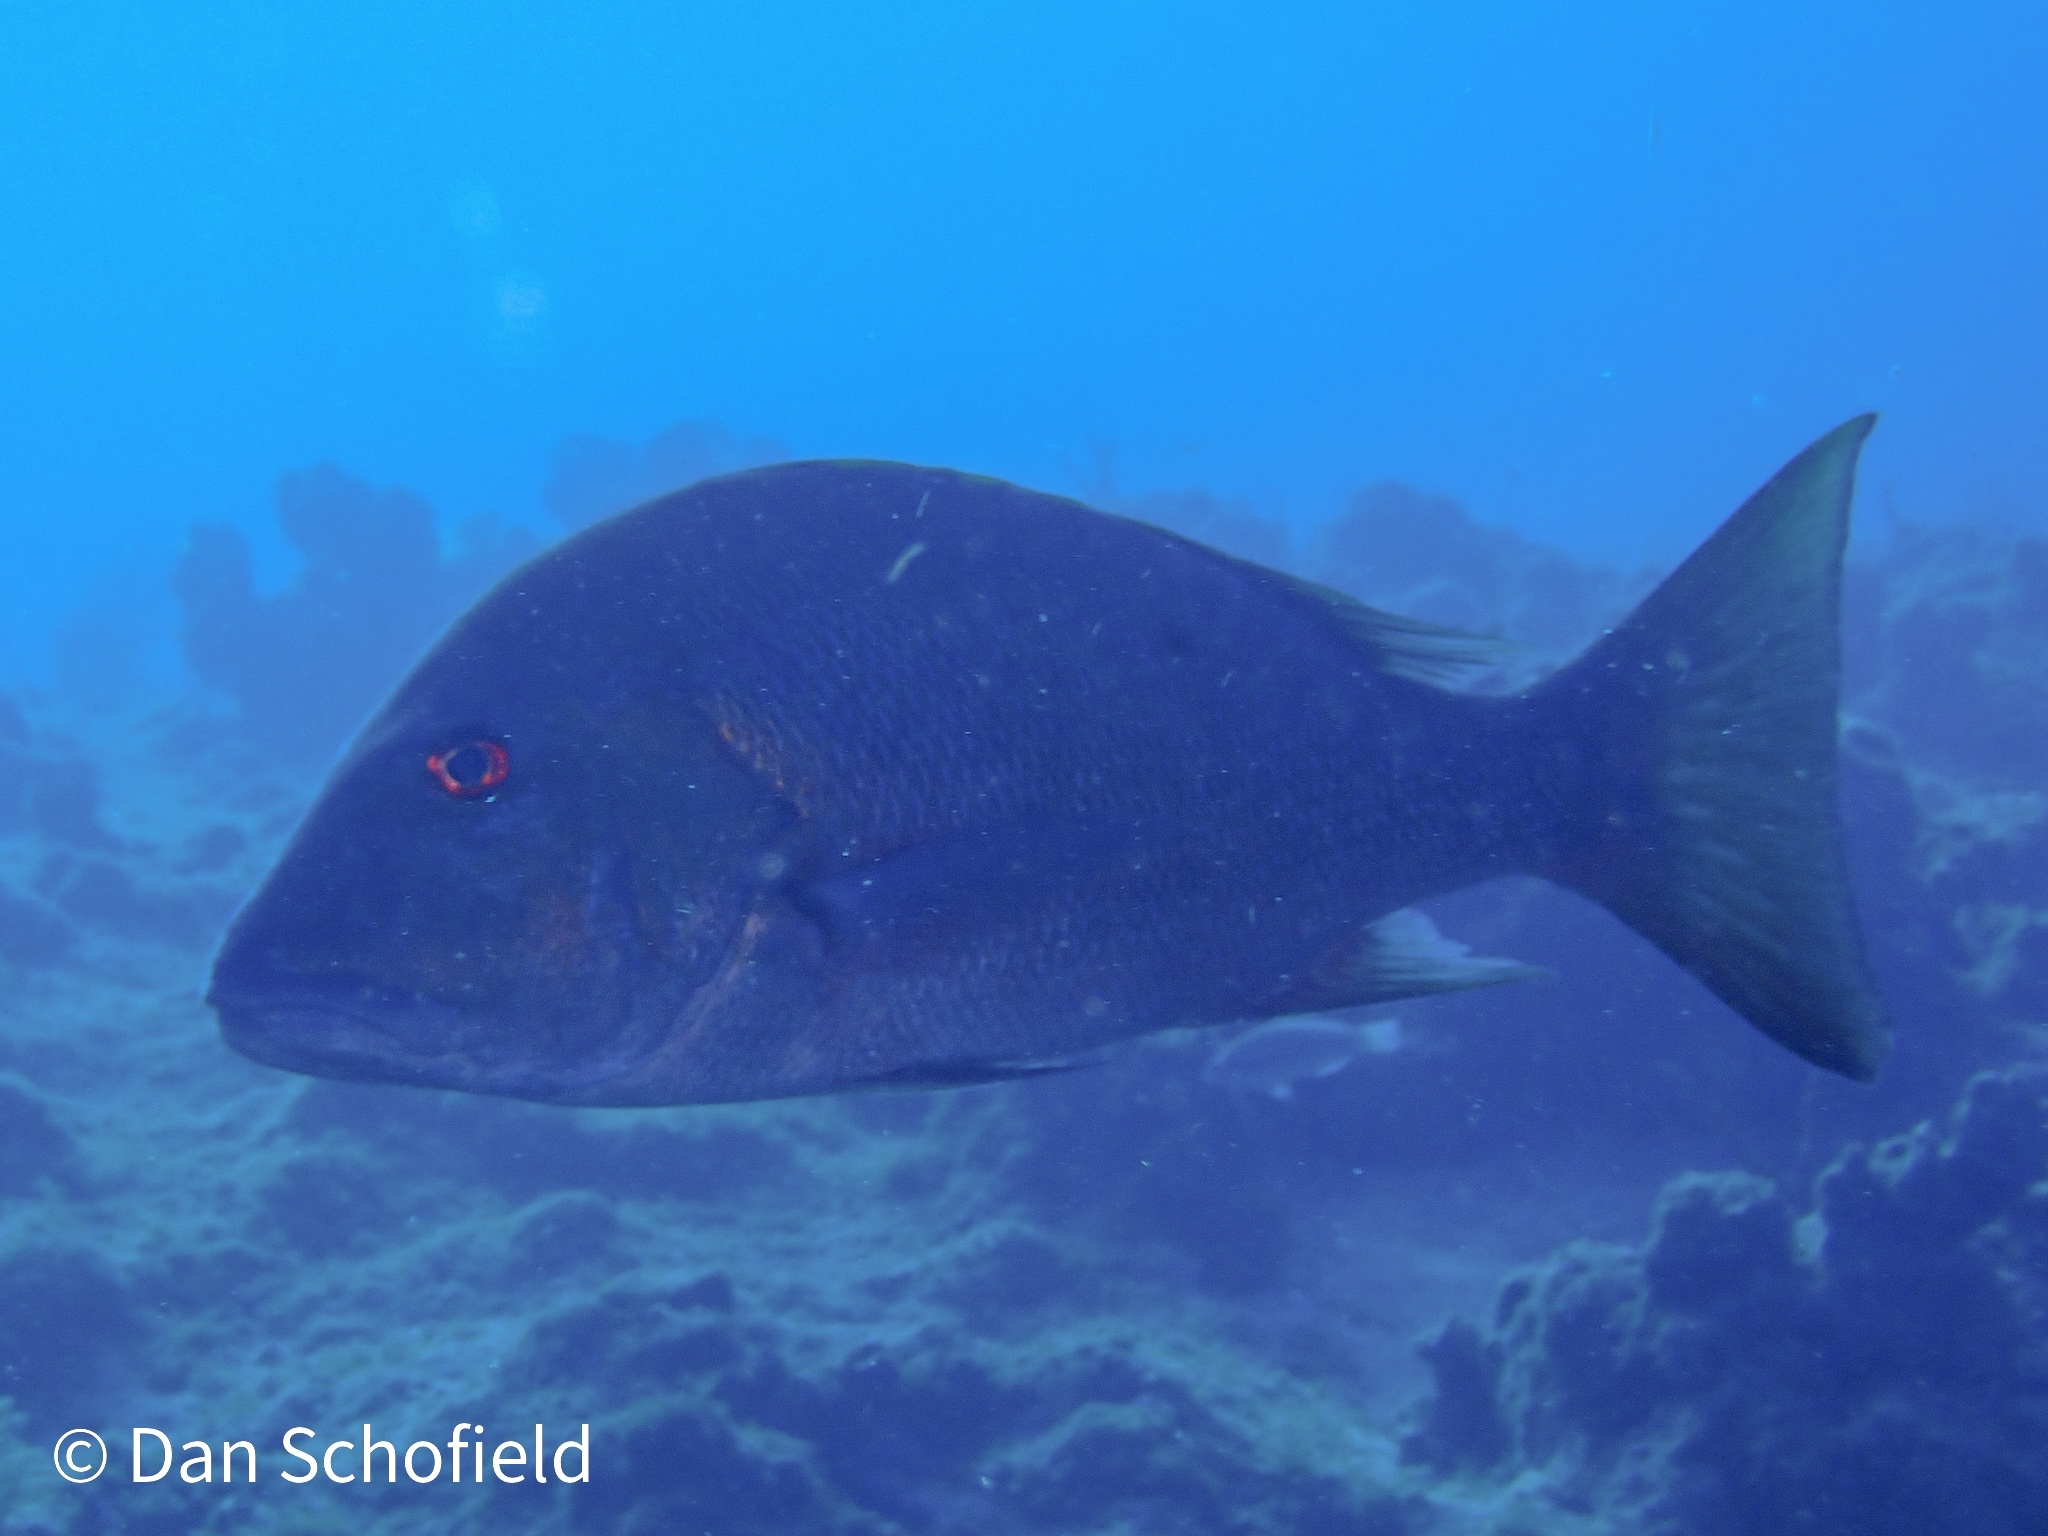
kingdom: Animalia
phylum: Chordata
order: Perciformes
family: Lutjanidae
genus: Lutjanus
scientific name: Lutjanus analis
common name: Mutton snapper
